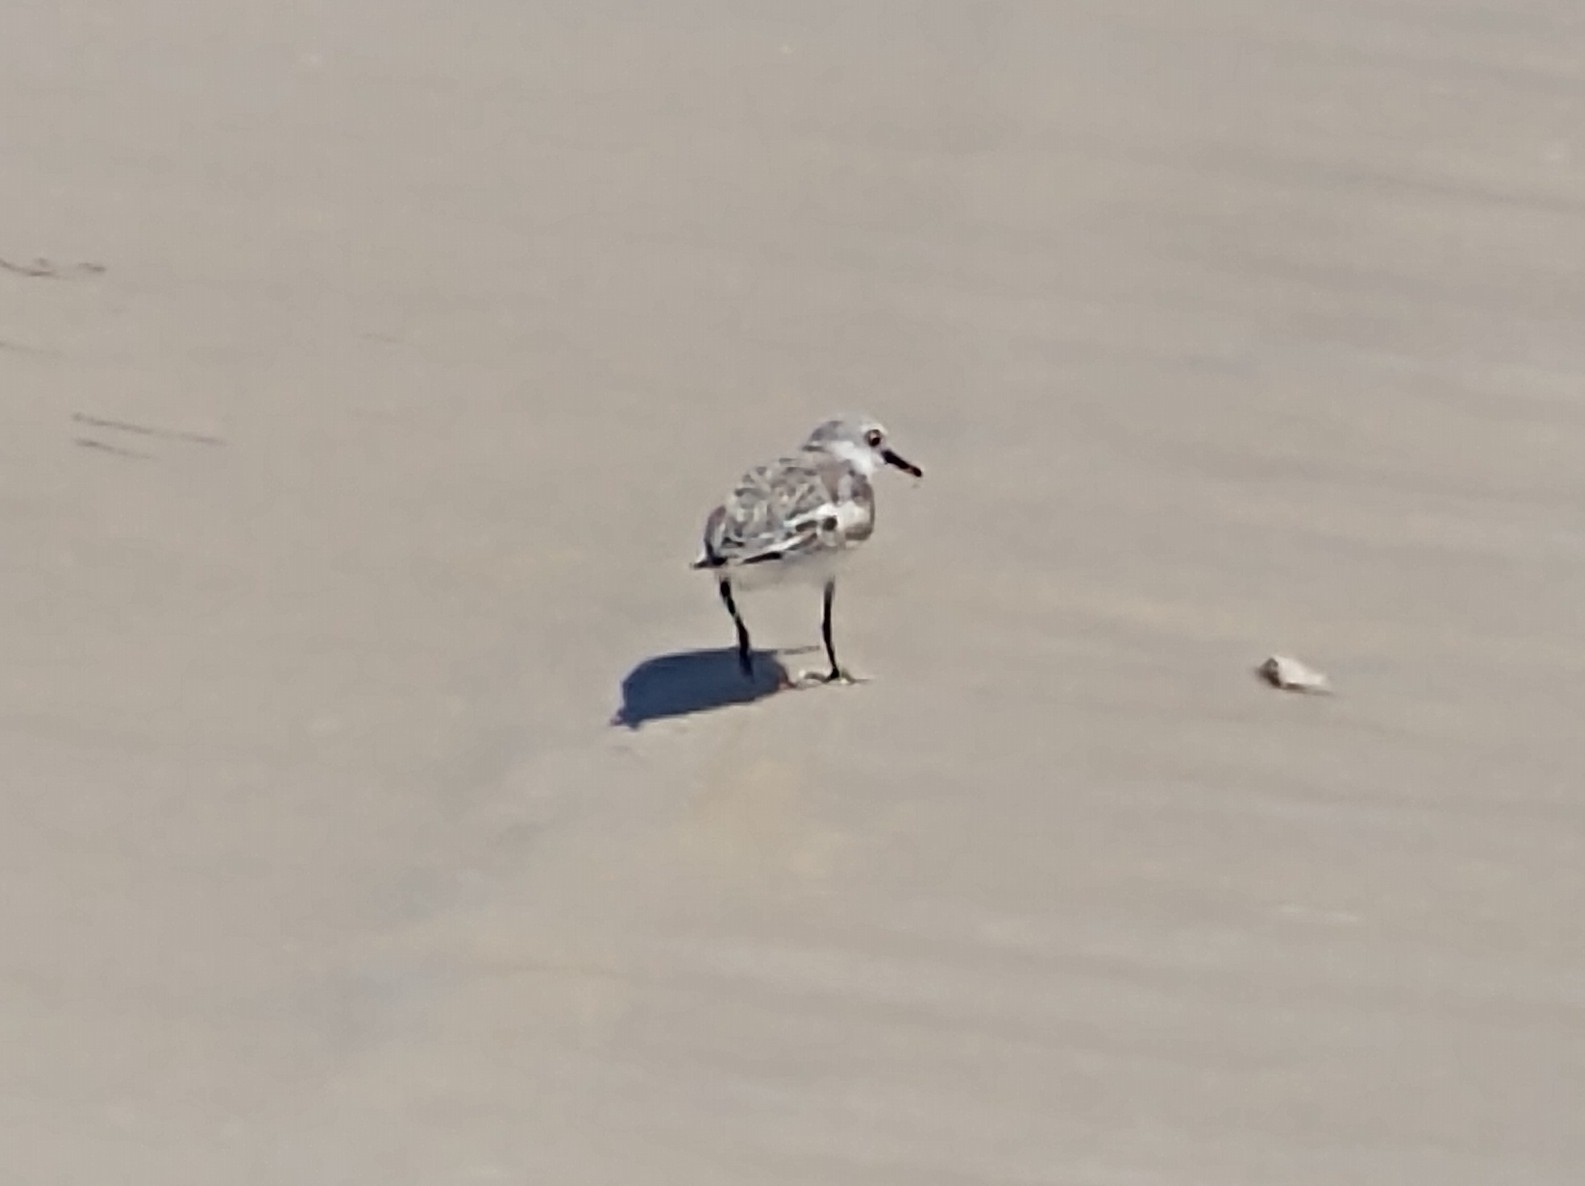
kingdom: Animalia
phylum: Chordata
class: Aves
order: Charadriiformes
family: Scolopacidae
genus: Calidris
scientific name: Calidris alba
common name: Sanderling
